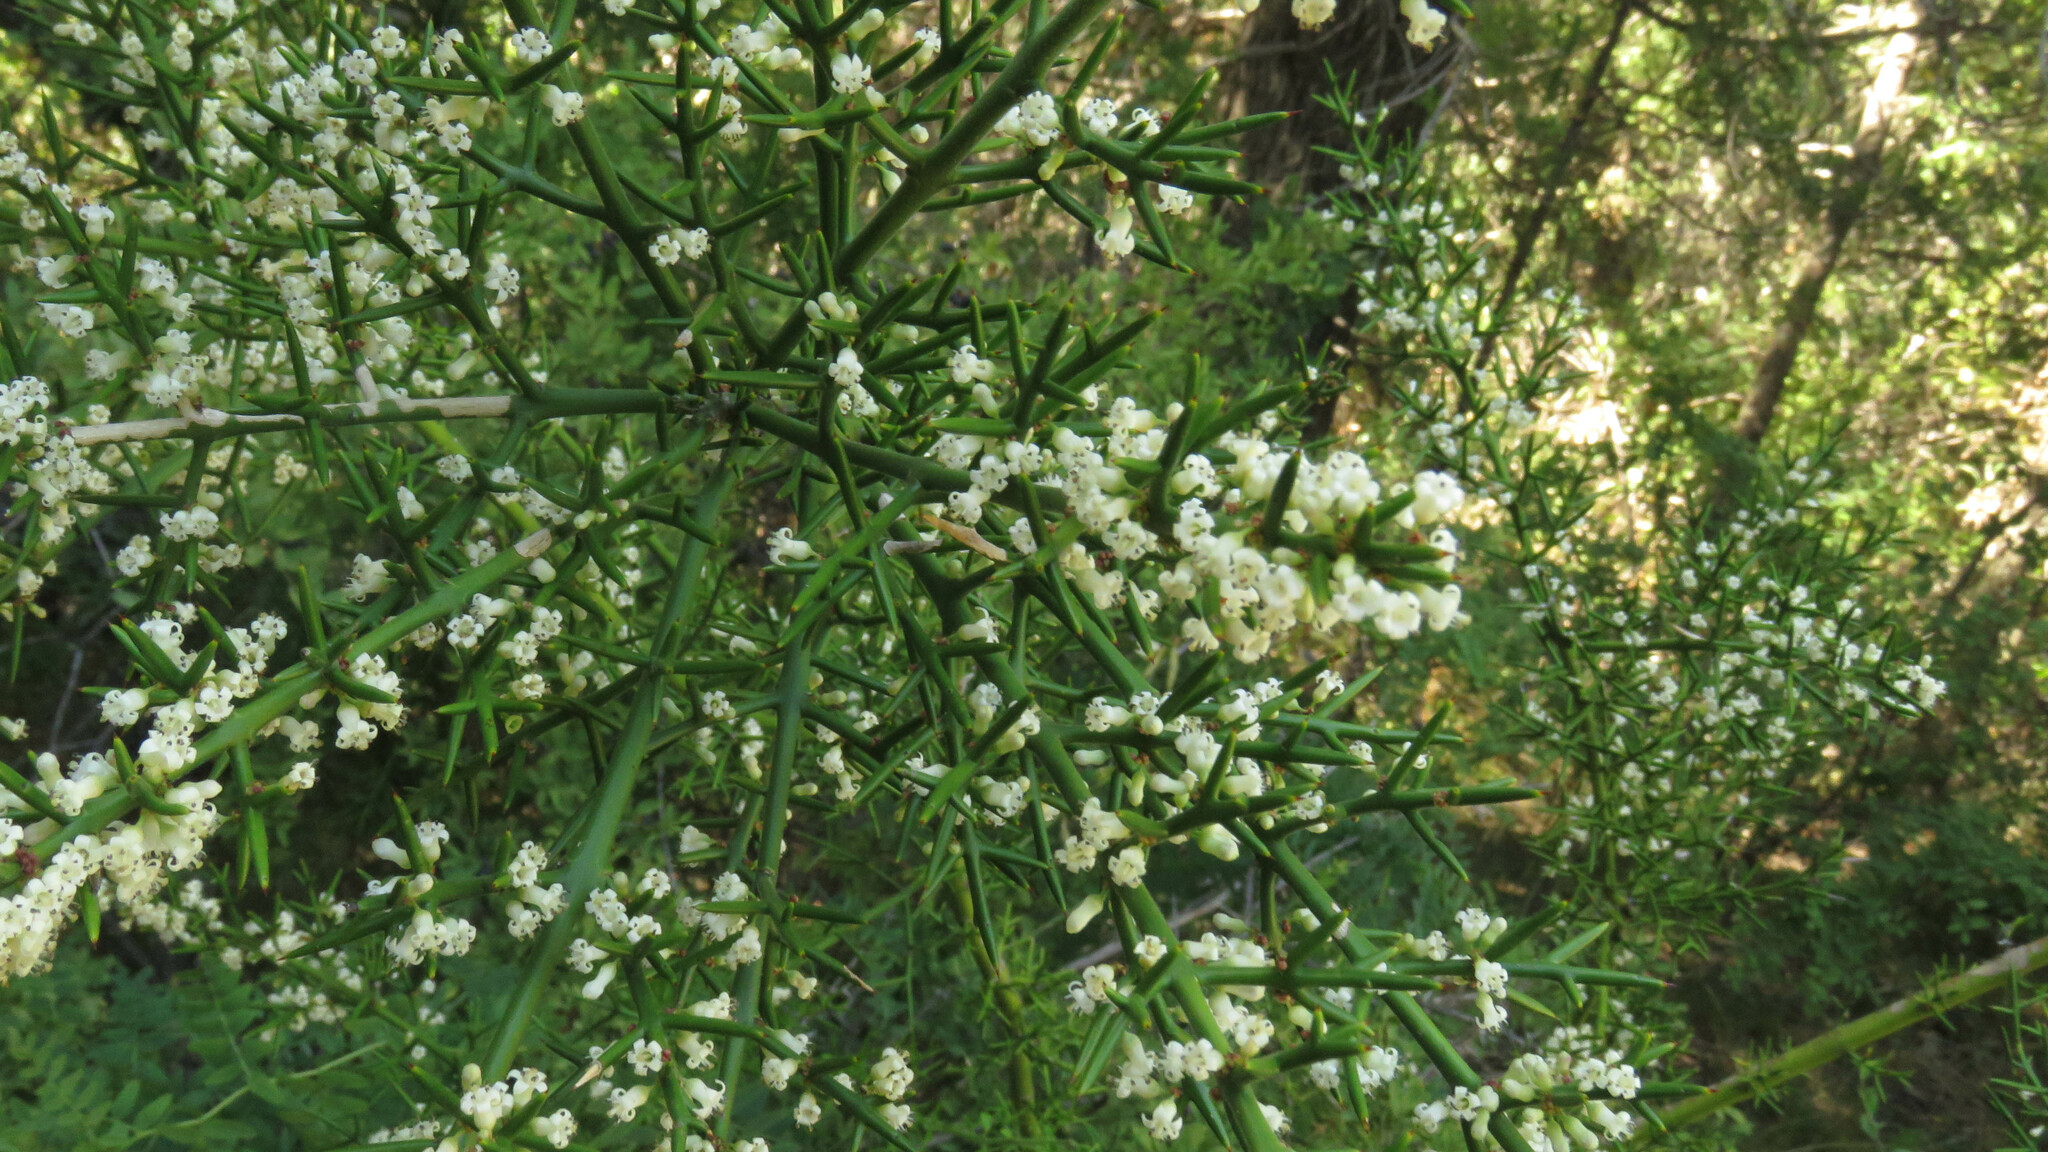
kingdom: Plantae
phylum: Tracheophyta
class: Magnoliopsida
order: Rosales
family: Rhamnaceae
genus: Colletia
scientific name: Colletia hystrix
